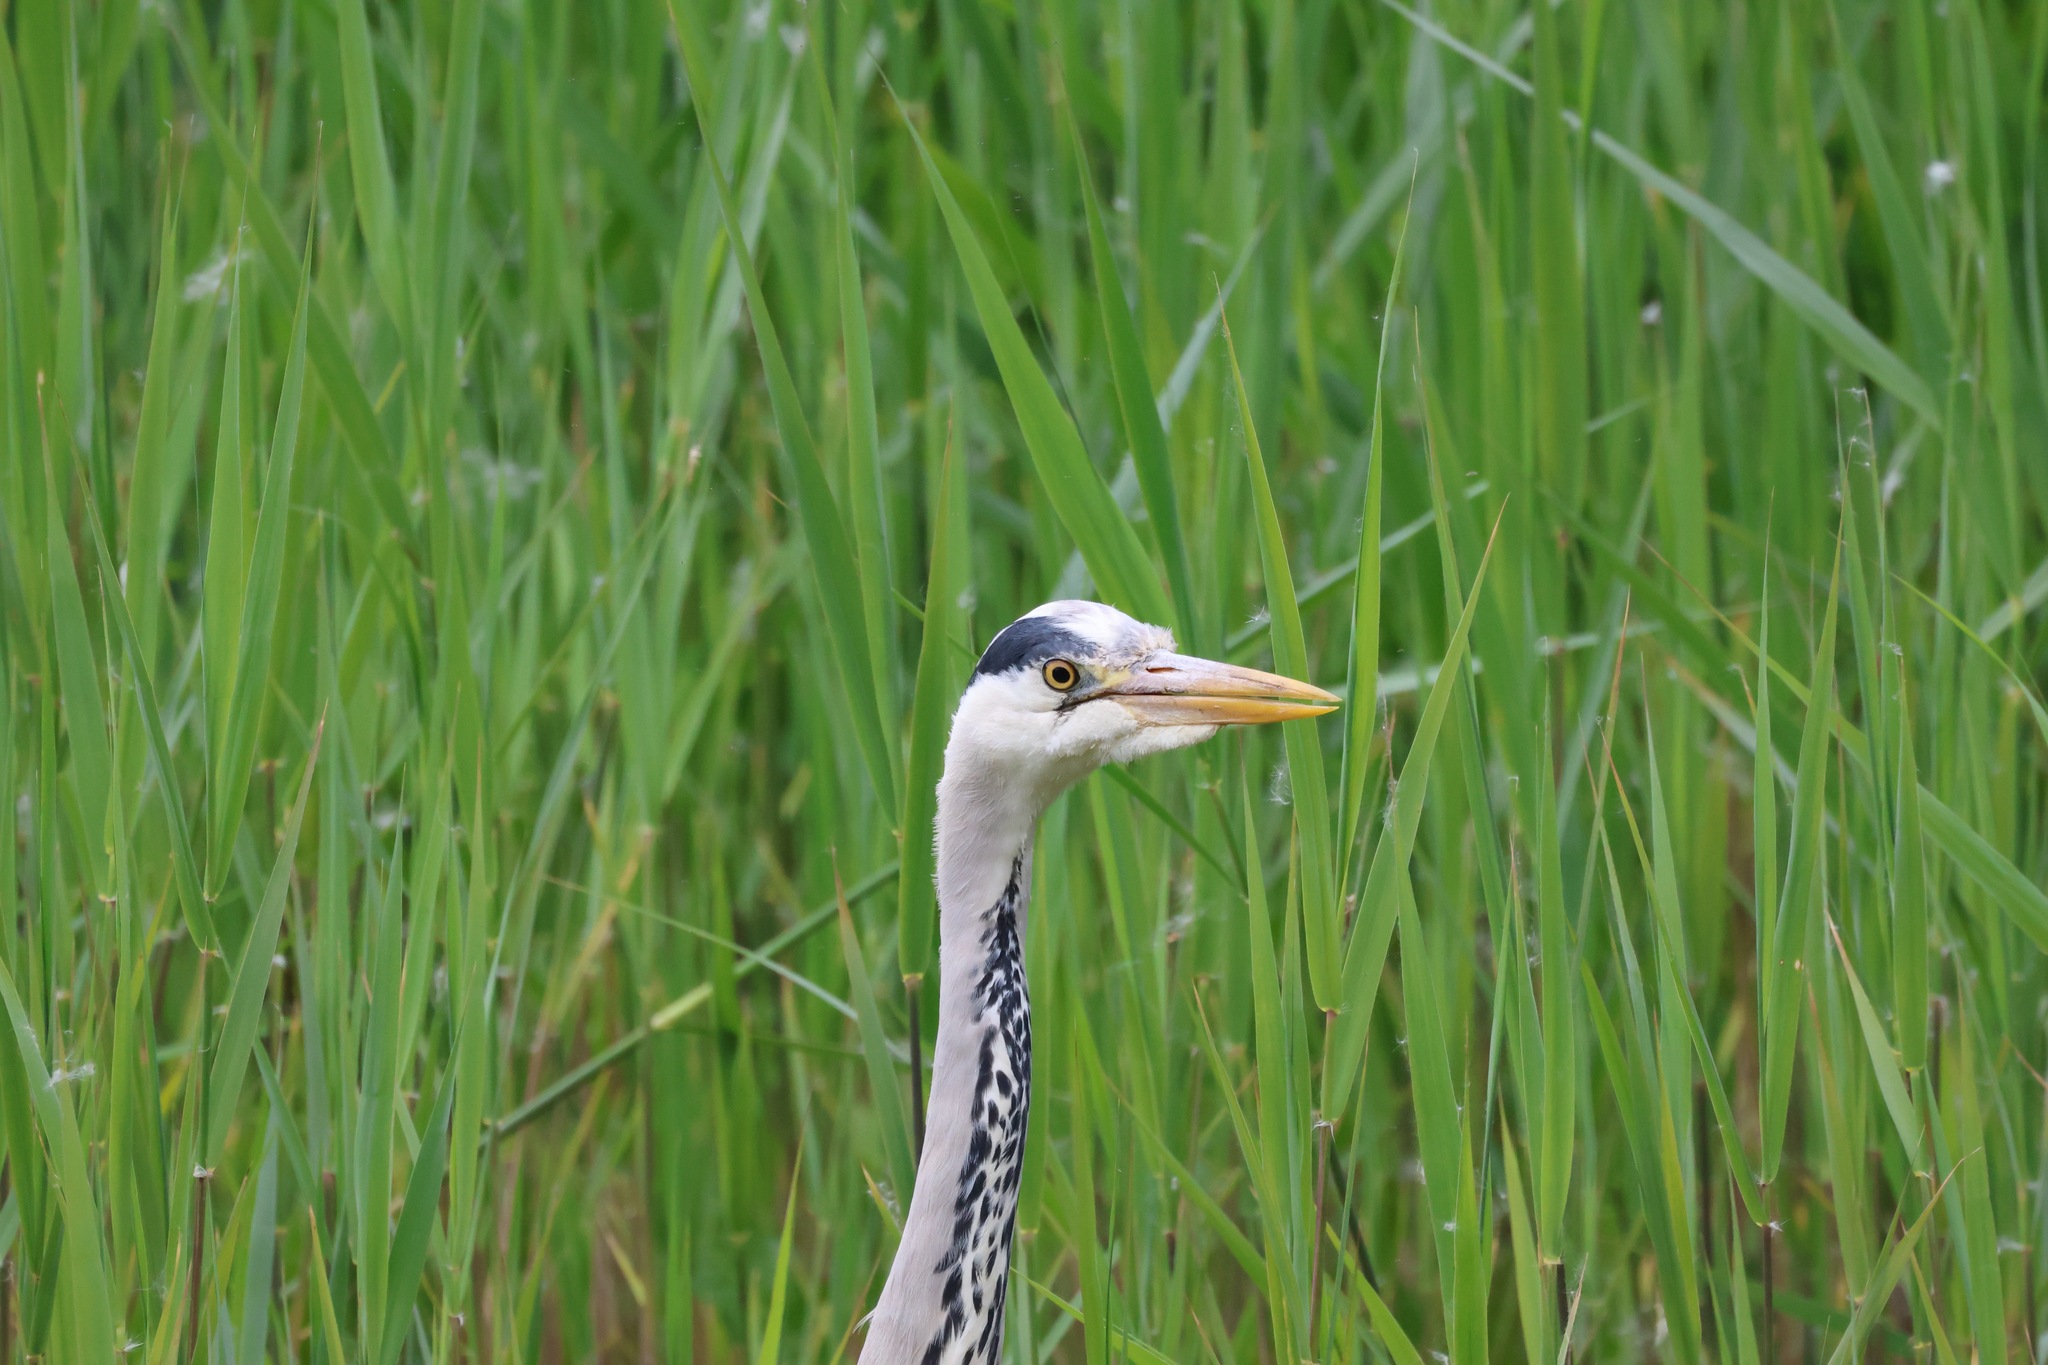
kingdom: Animalia
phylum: Chordata
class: Aves
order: Pelecaniformes
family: Ardeidae
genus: Ardea
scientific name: Ardea cinerea
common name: Grey heron
